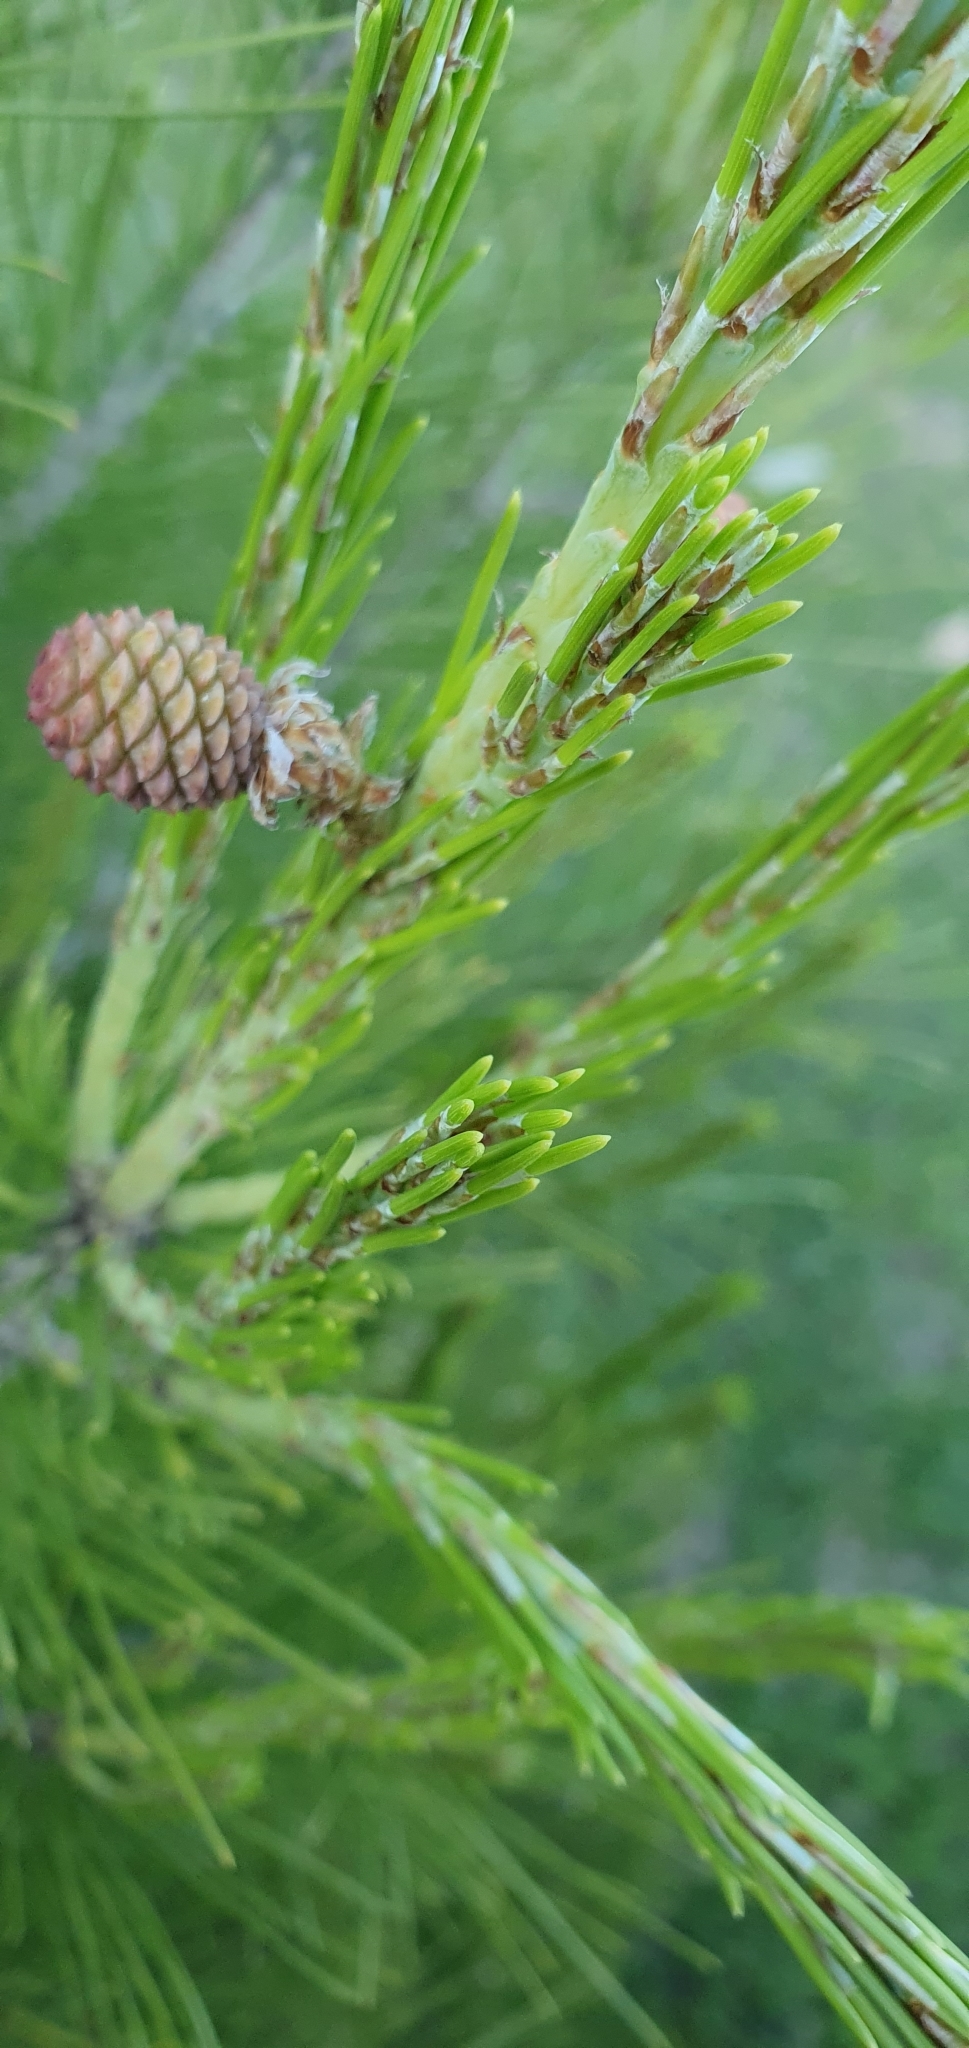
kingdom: Plantae
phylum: Tracheophyta
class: Pinopsida
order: Pinales
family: Pinaceae
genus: Pinus
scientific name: Pinus halepensis
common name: Aleppo pine
